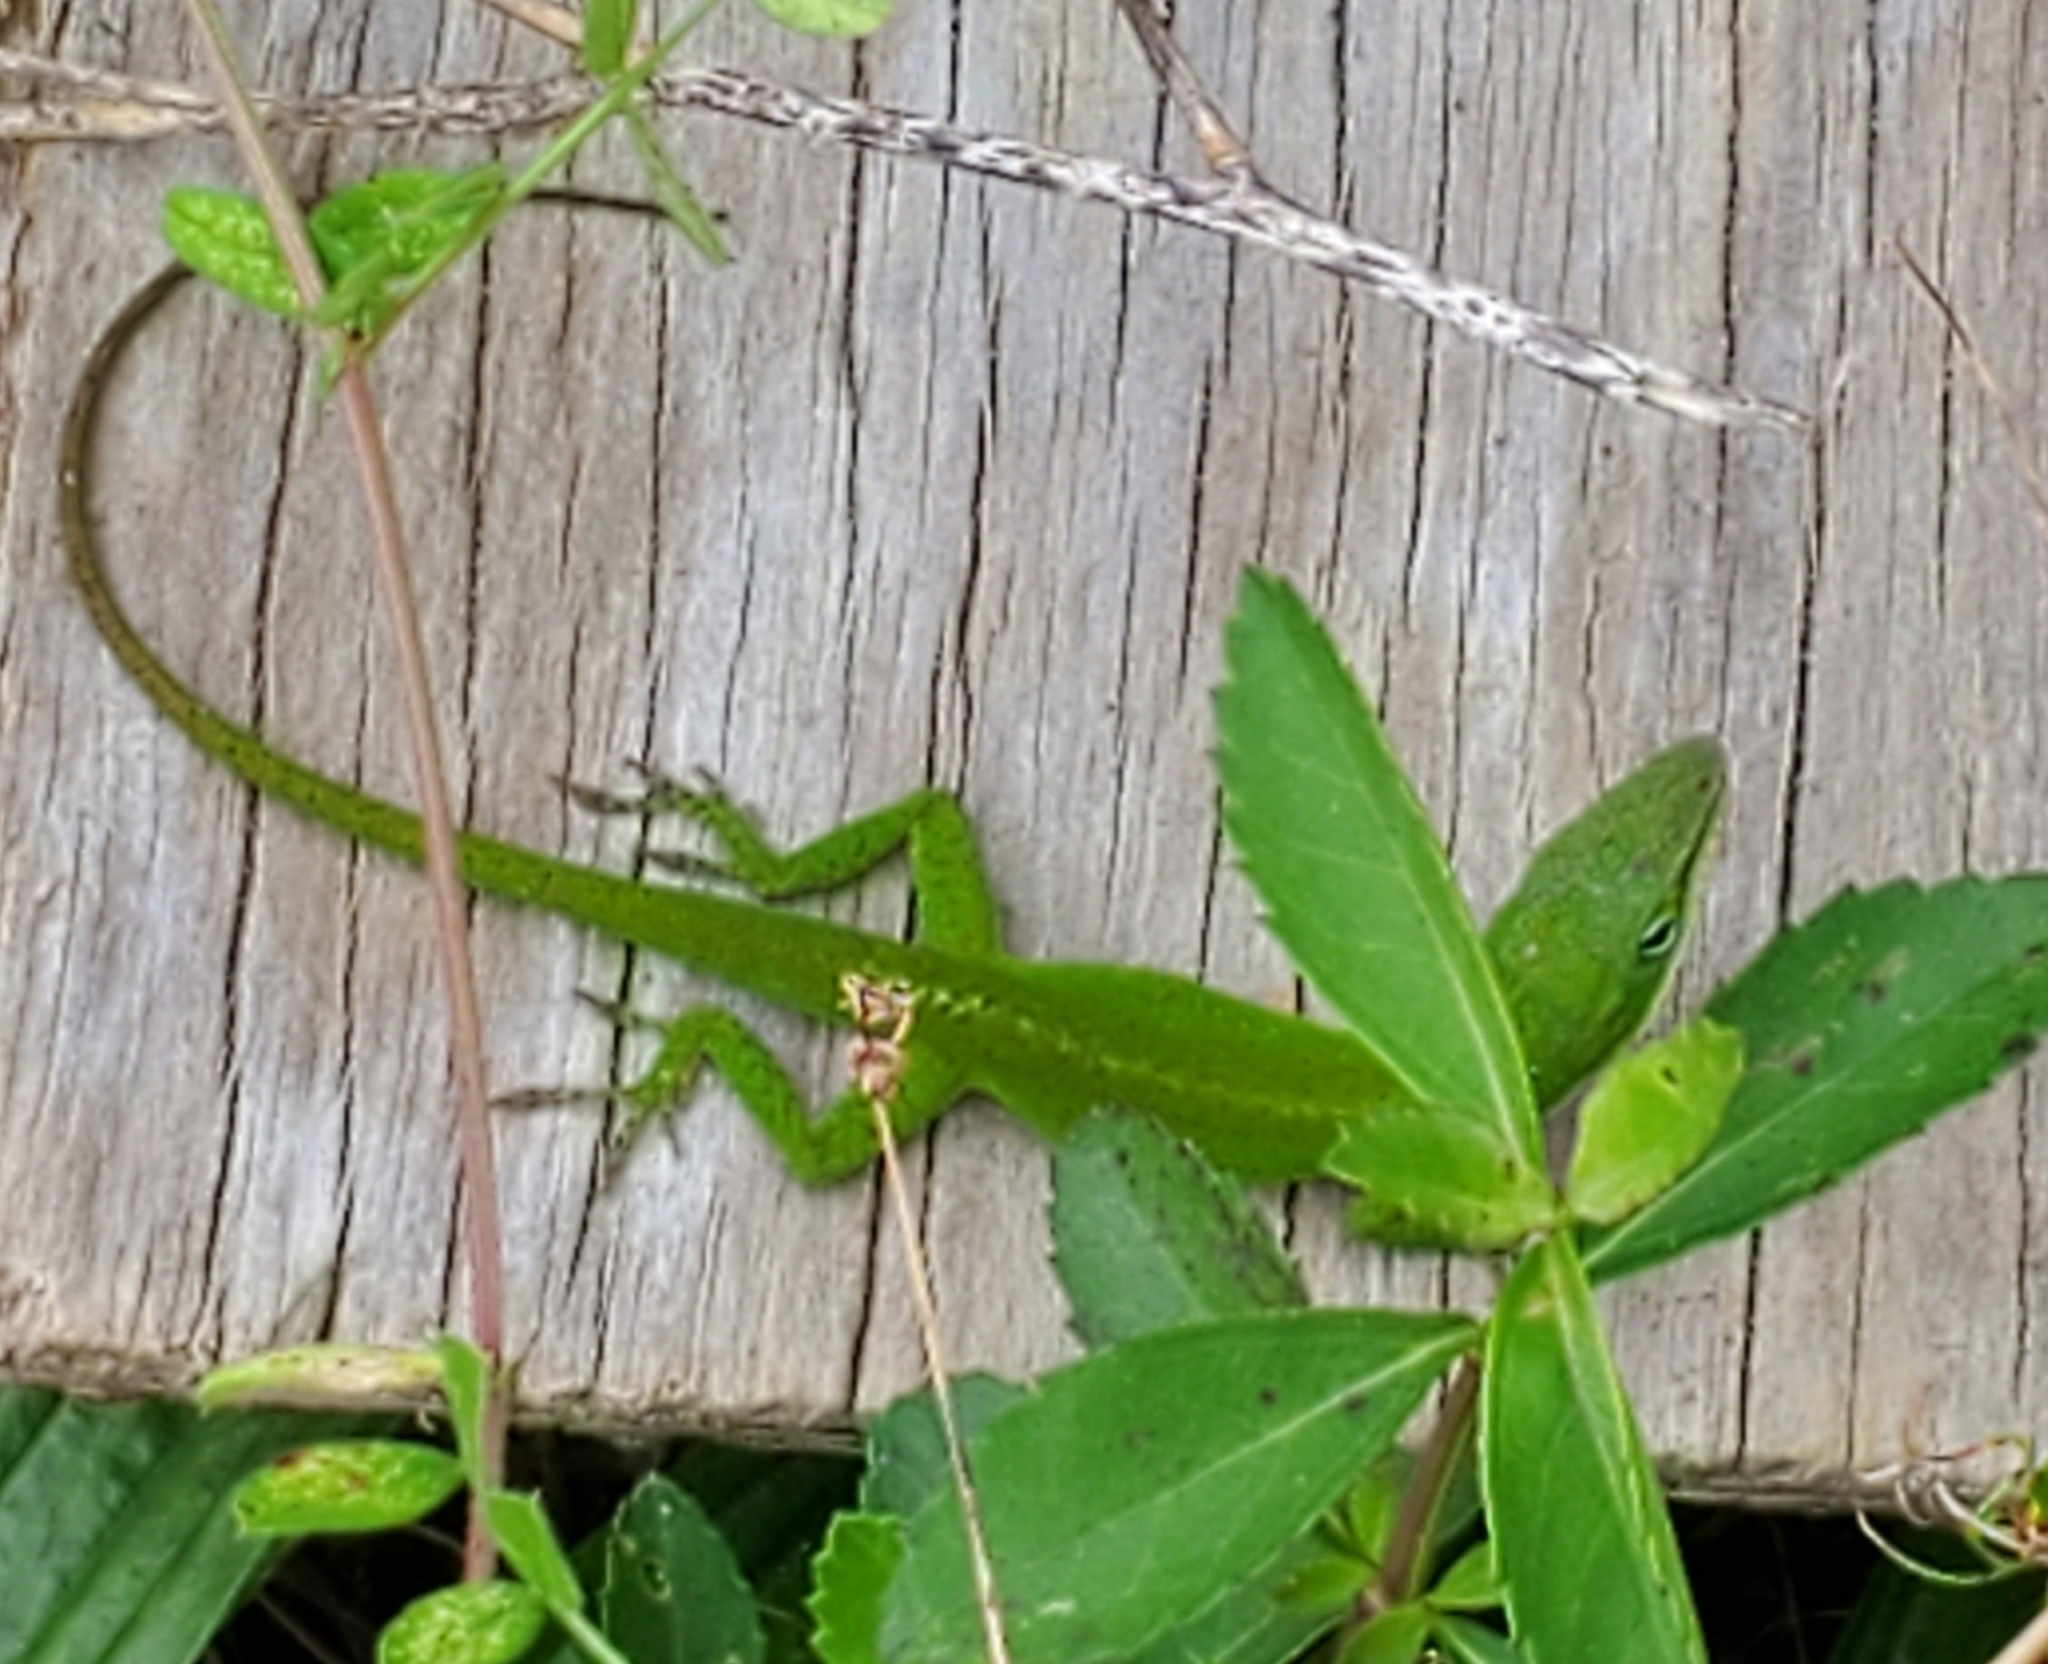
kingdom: Animalia
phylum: Chordata
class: Squamata
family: Dactyloidae
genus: Anolis
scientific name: Anolis carolinensis
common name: Green anole
